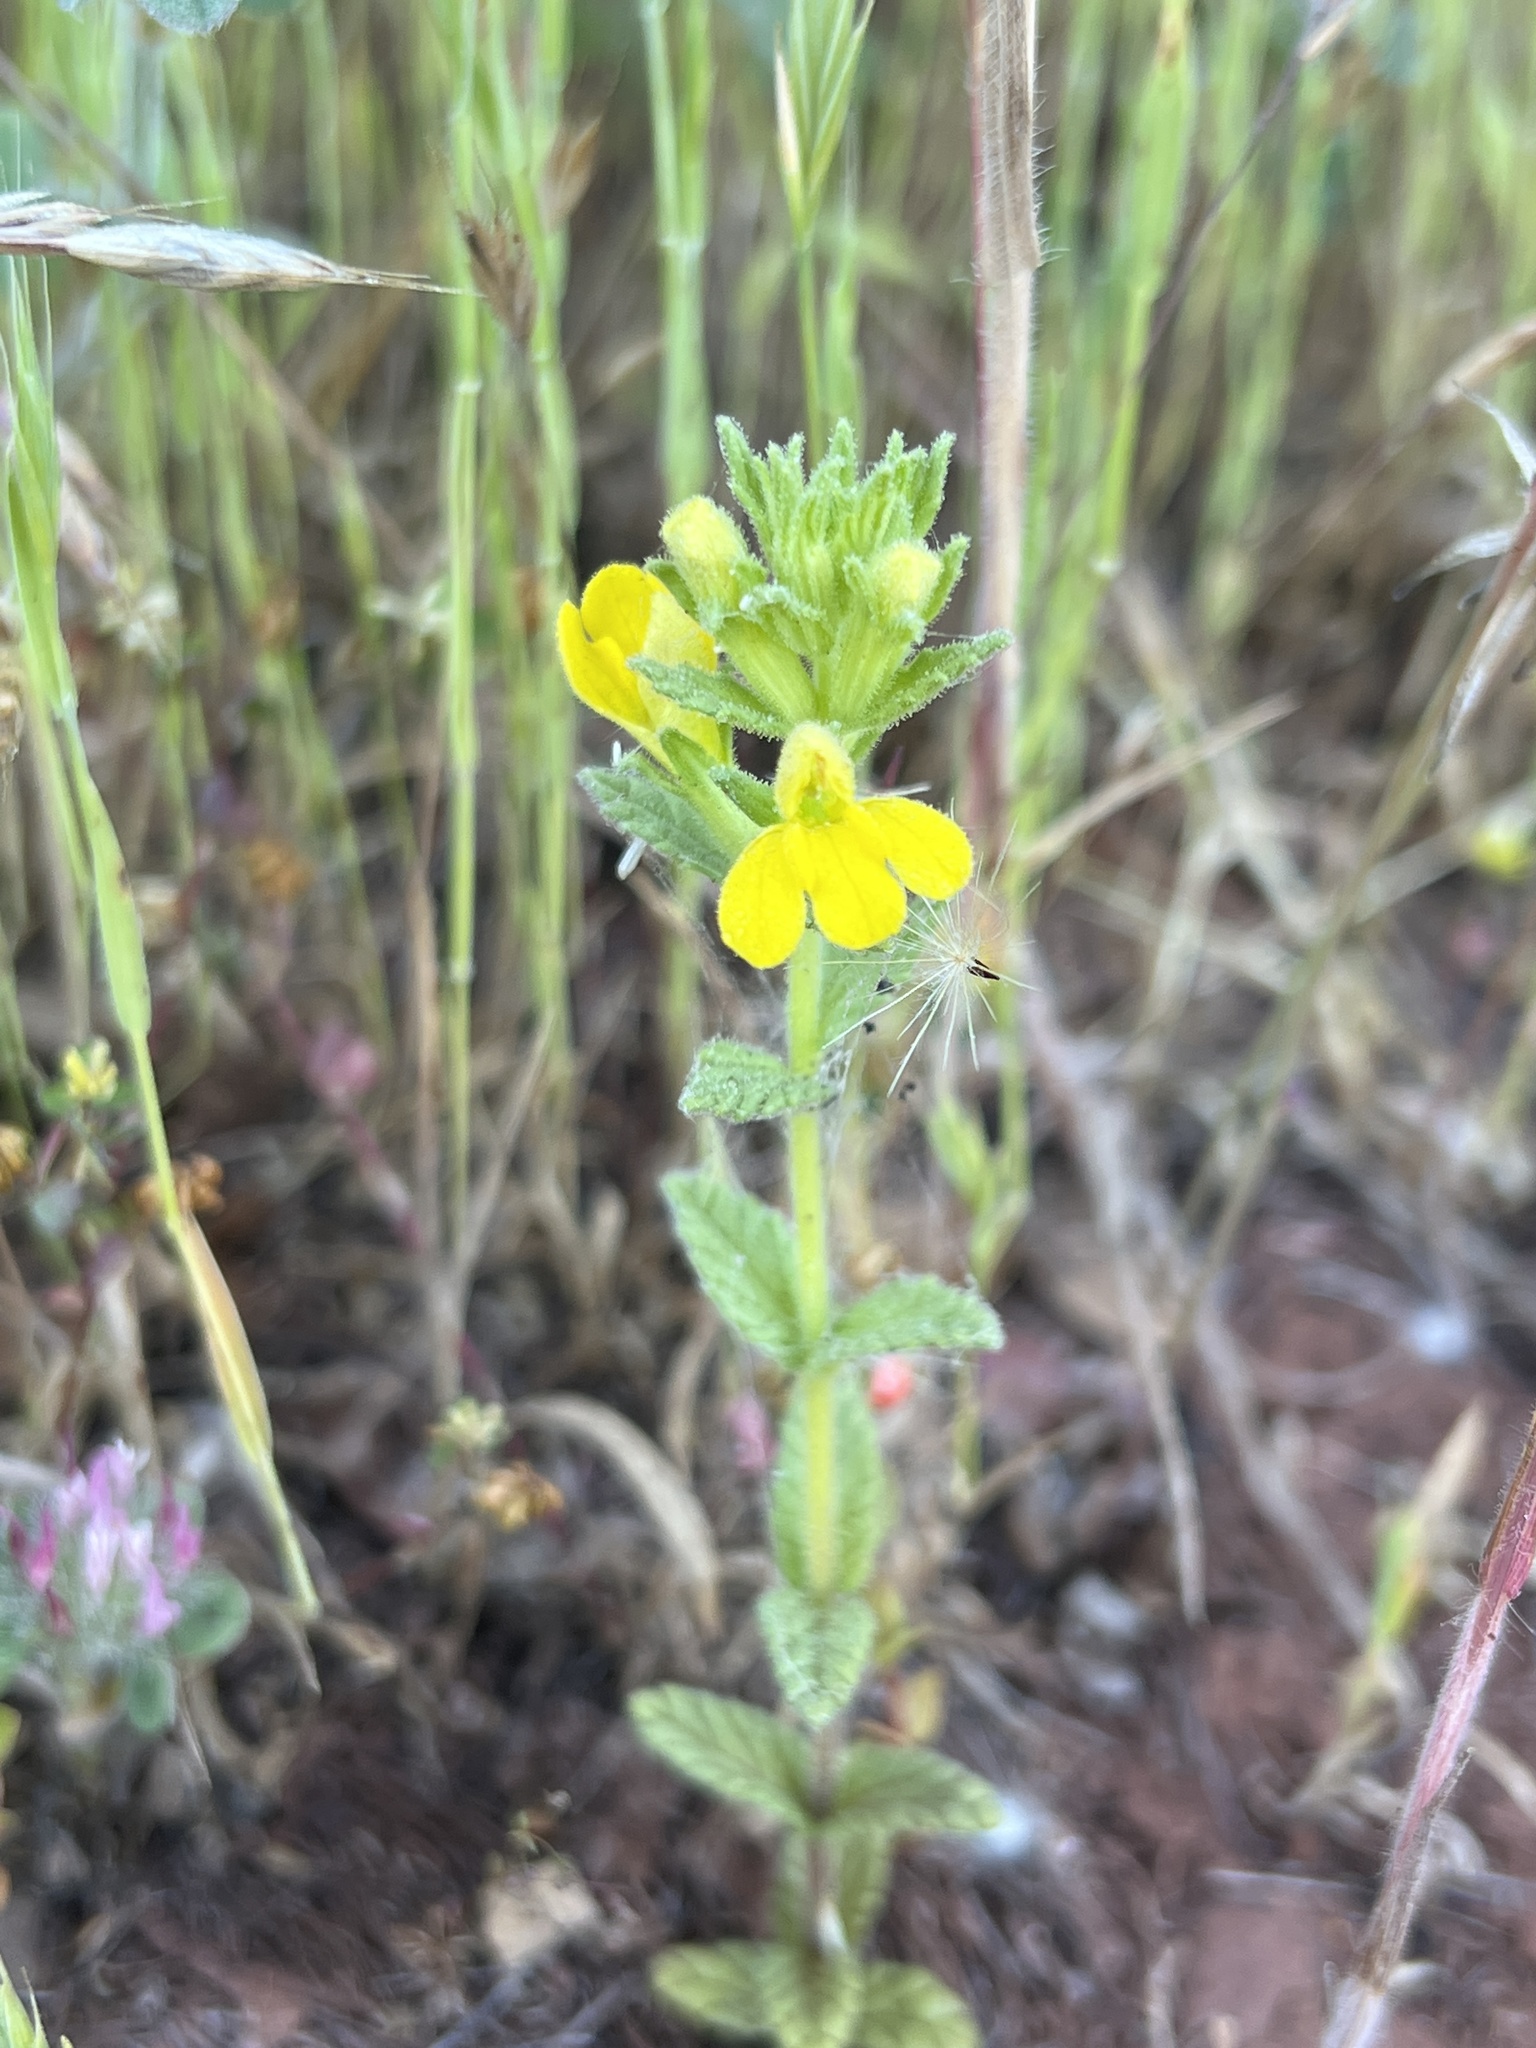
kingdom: Plantae
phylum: Tracheophyta
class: Magnoliopsida
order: Lamiales
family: Orobanchaceae
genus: Bellardia
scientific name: Bellardia viscosa
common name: Sticky parentucellia
